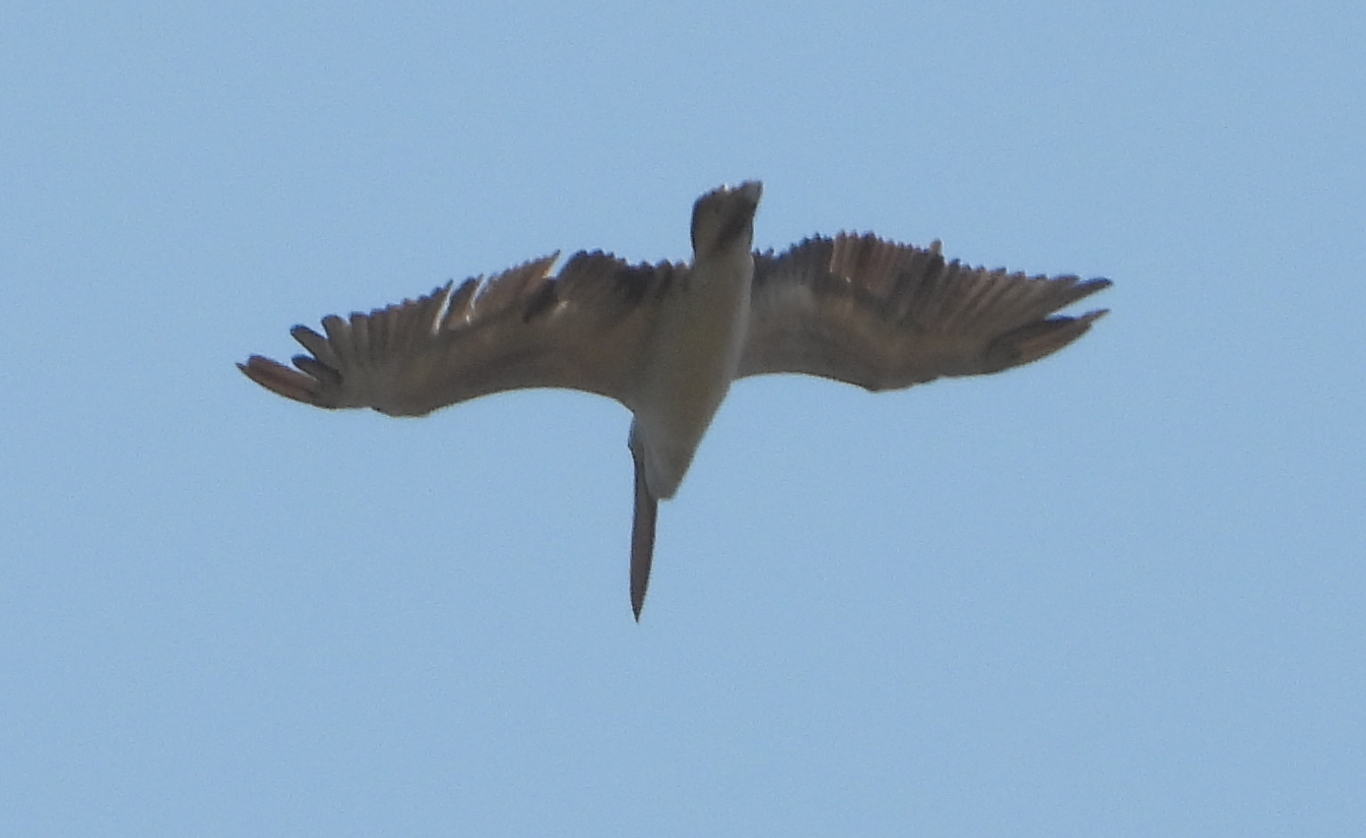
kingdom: Animalia
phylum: Chordata
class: Aves
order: Pelecaniformes
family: Pelecanidae
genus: Pelecanus
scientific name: Pelecanus rufescens
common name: Pink-backed pelican
